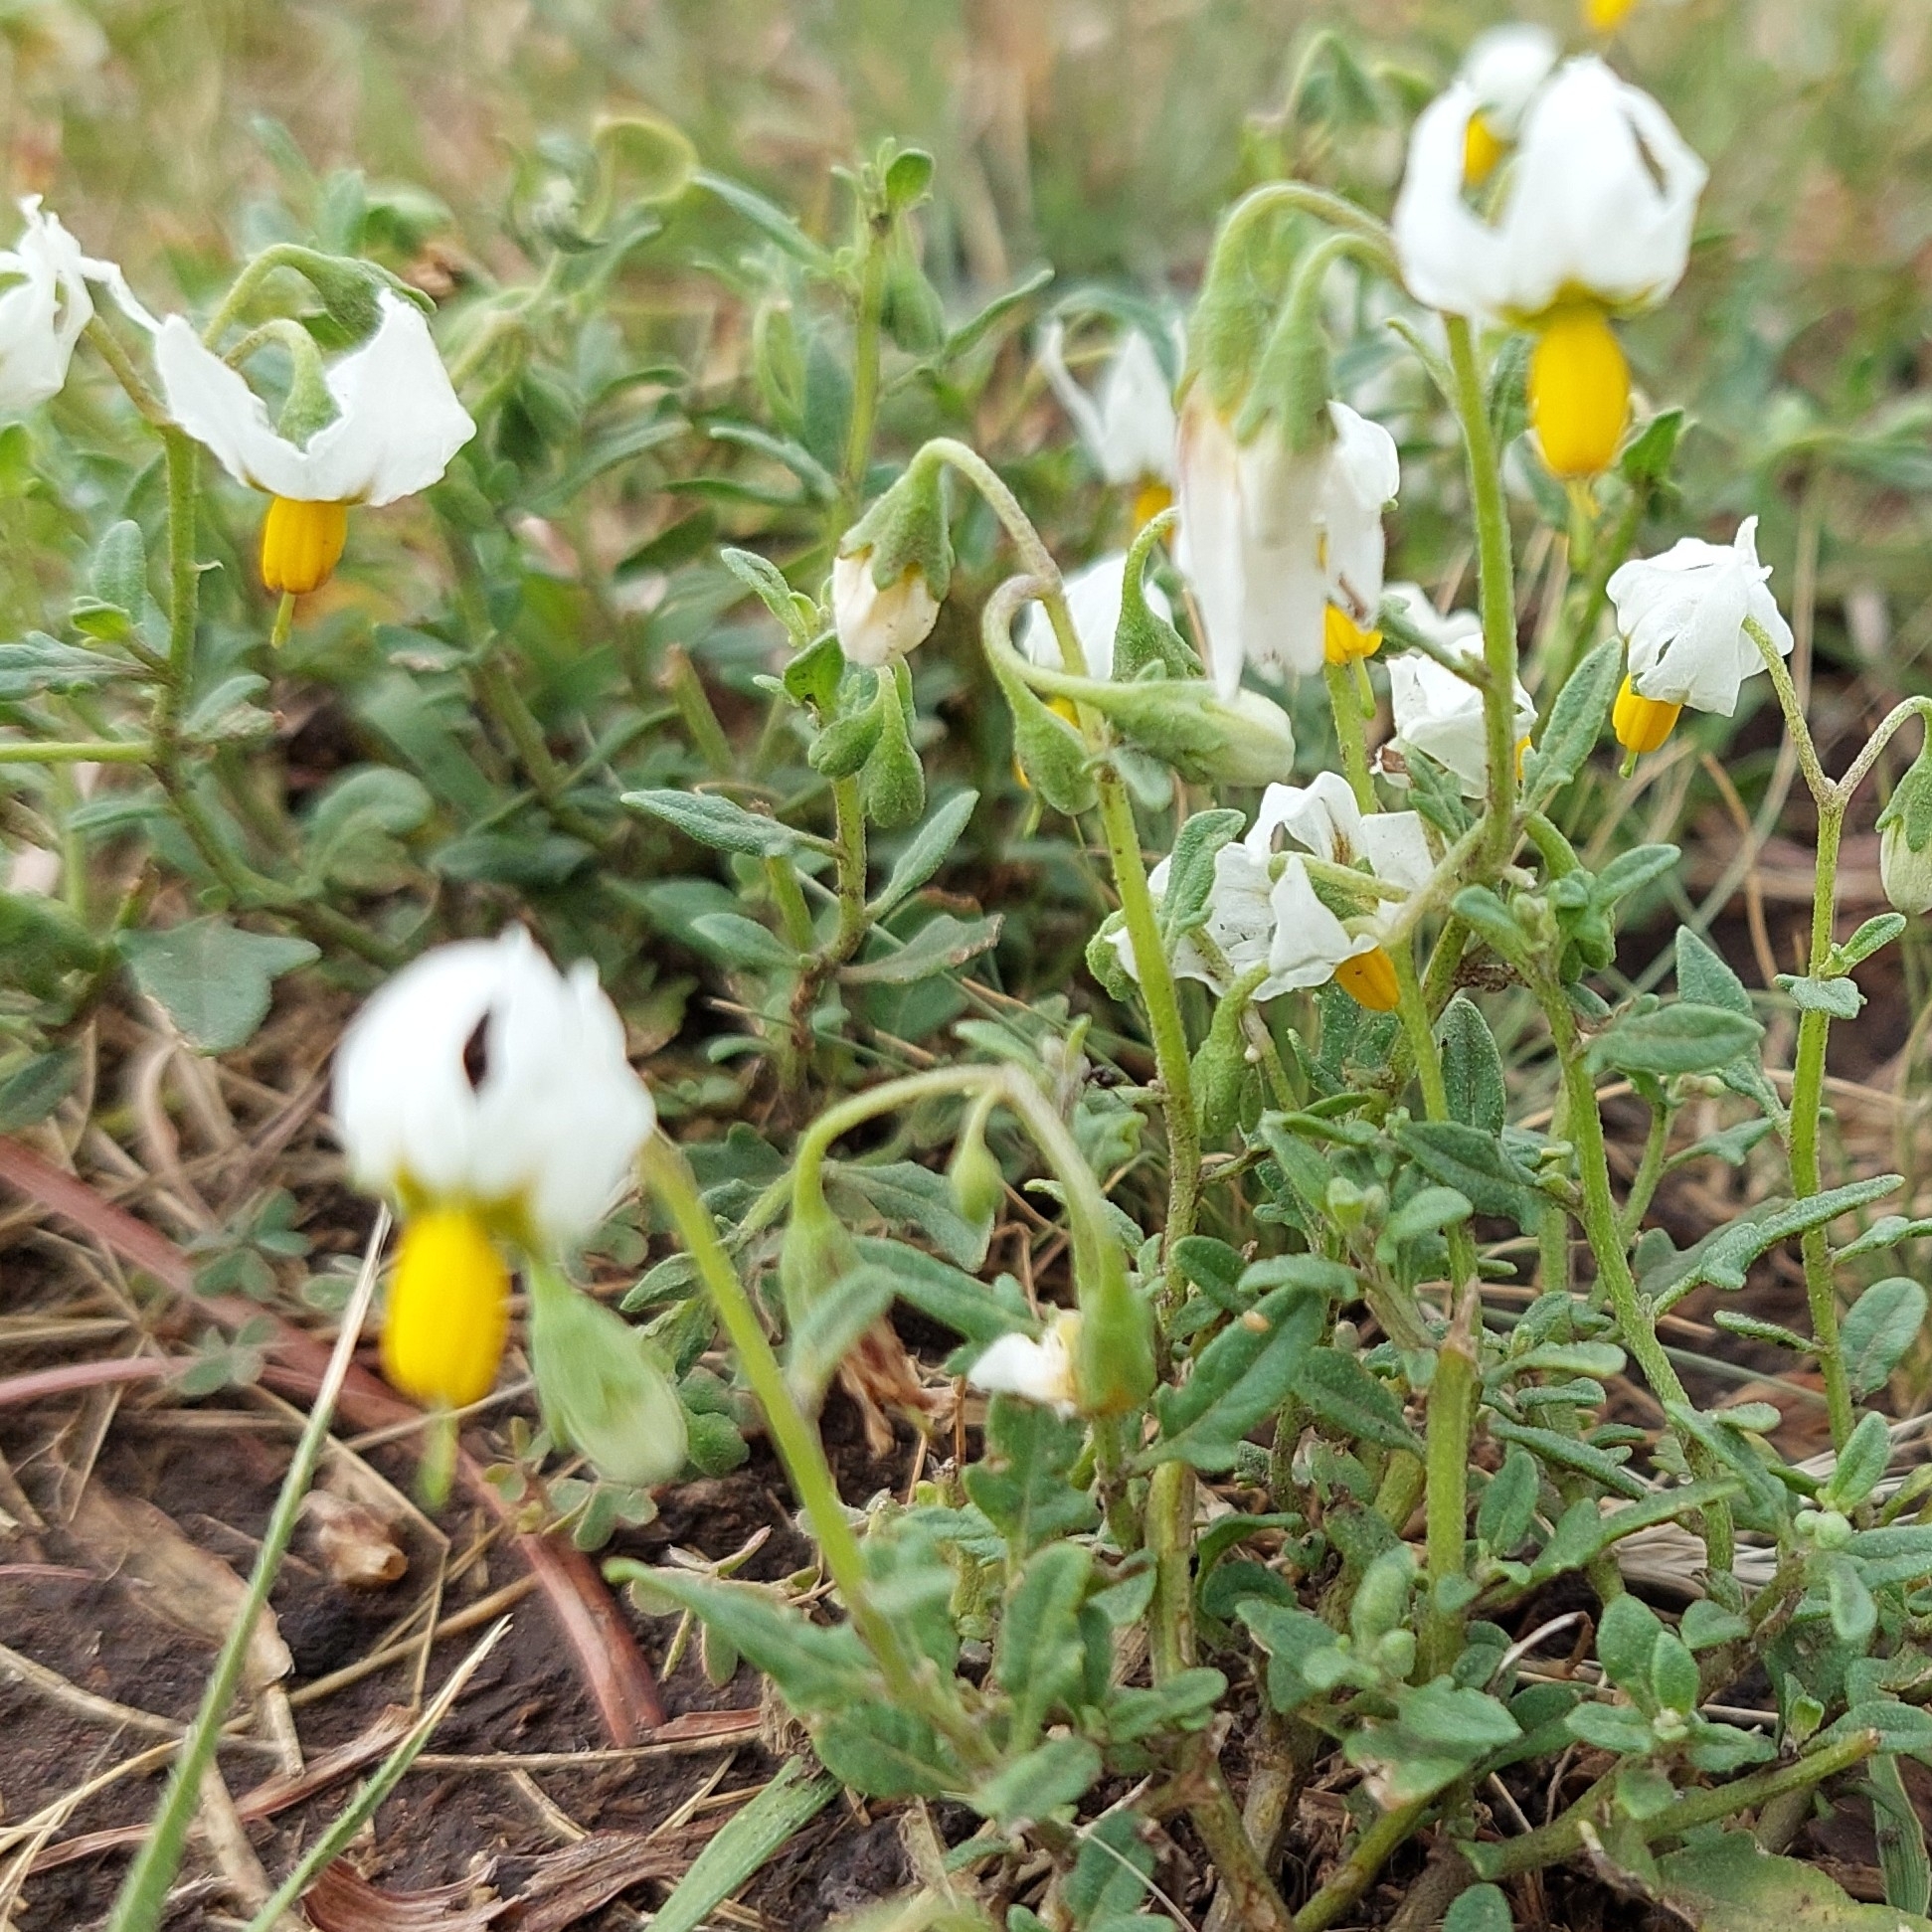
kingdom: Plantae
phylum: Tracheophyta
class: Magnoliopsida
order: Solanales
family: Solanaceae
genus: Solanum
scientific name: Solanum pygmaeum
